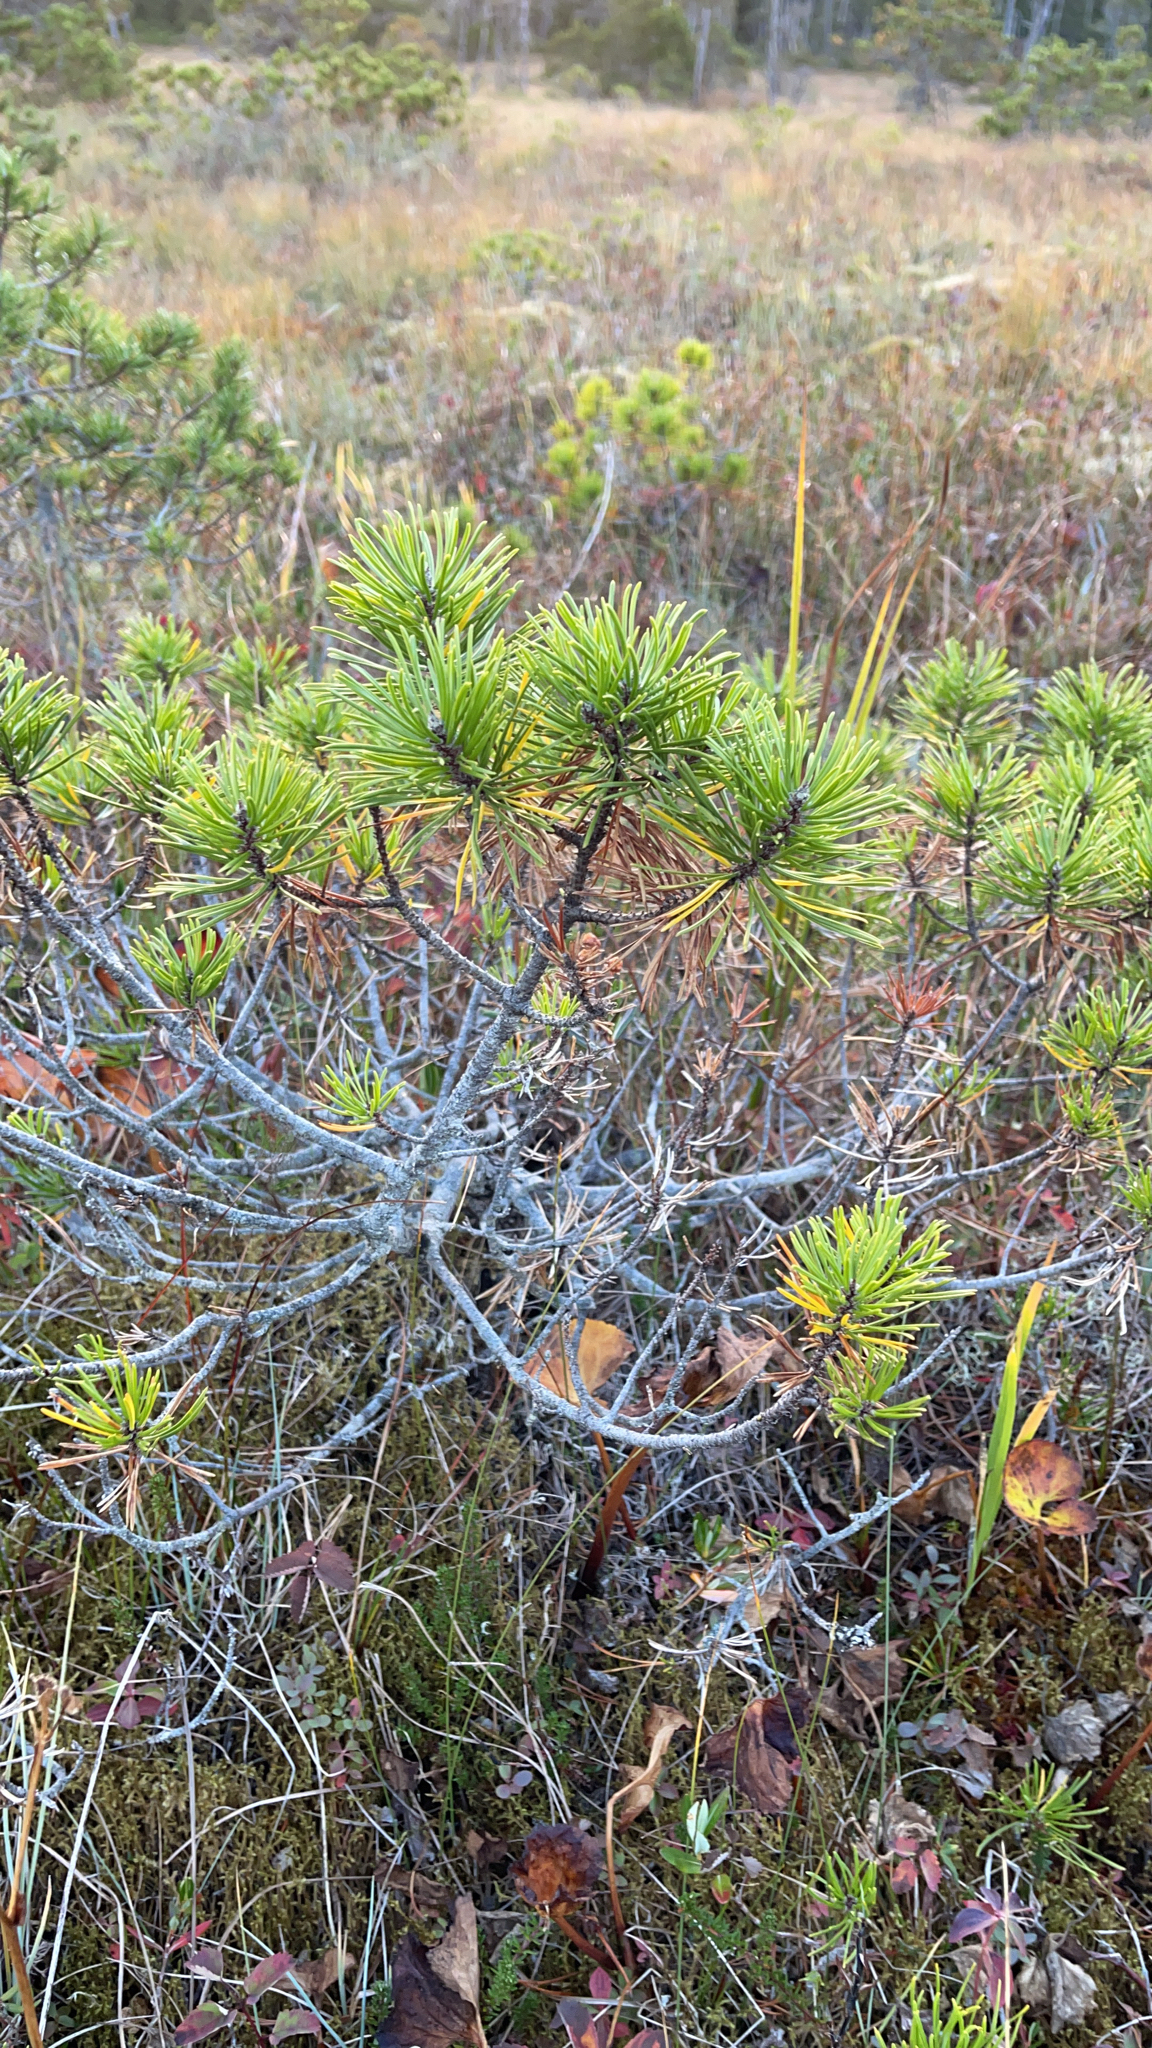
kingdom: Plantae
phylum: Tracheophyta
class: Pinopsida
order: Pinales
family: Pinaceae
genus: Pinus
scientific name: Pinus contorta
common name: Lodgepole pine
